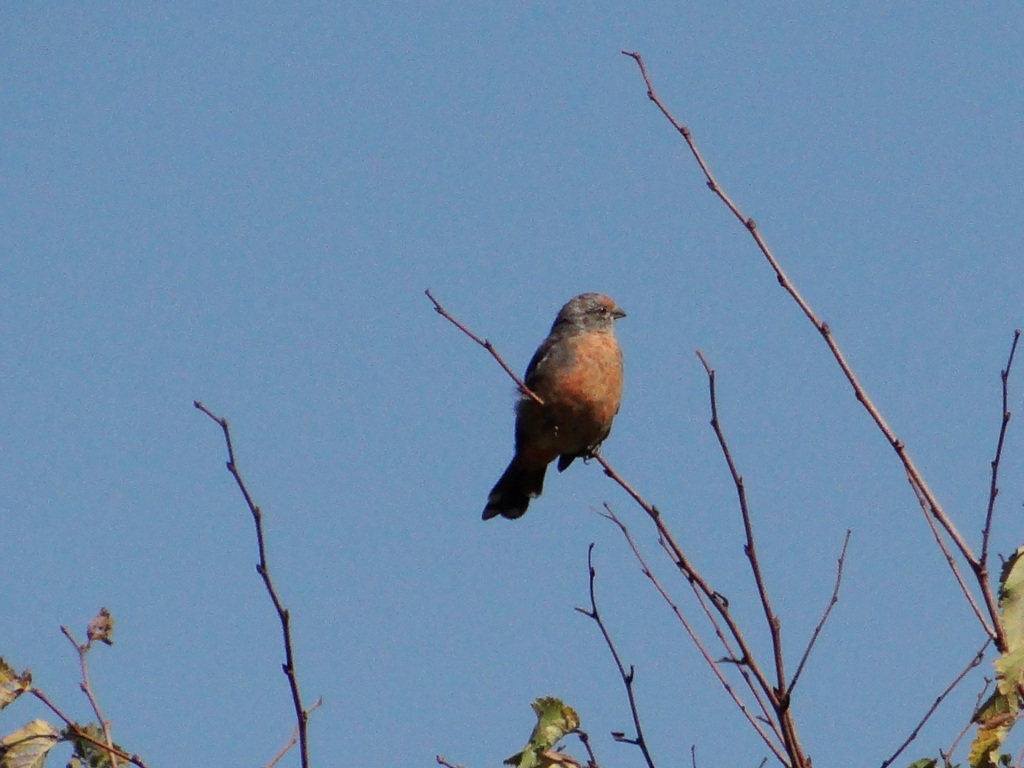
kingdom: Animalia
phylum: Chordata
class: Aves
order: Passeriformes
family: Cotingidae
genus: Phytotoma
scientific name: Phytotoma rutila
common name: White-tipped plantcutter
